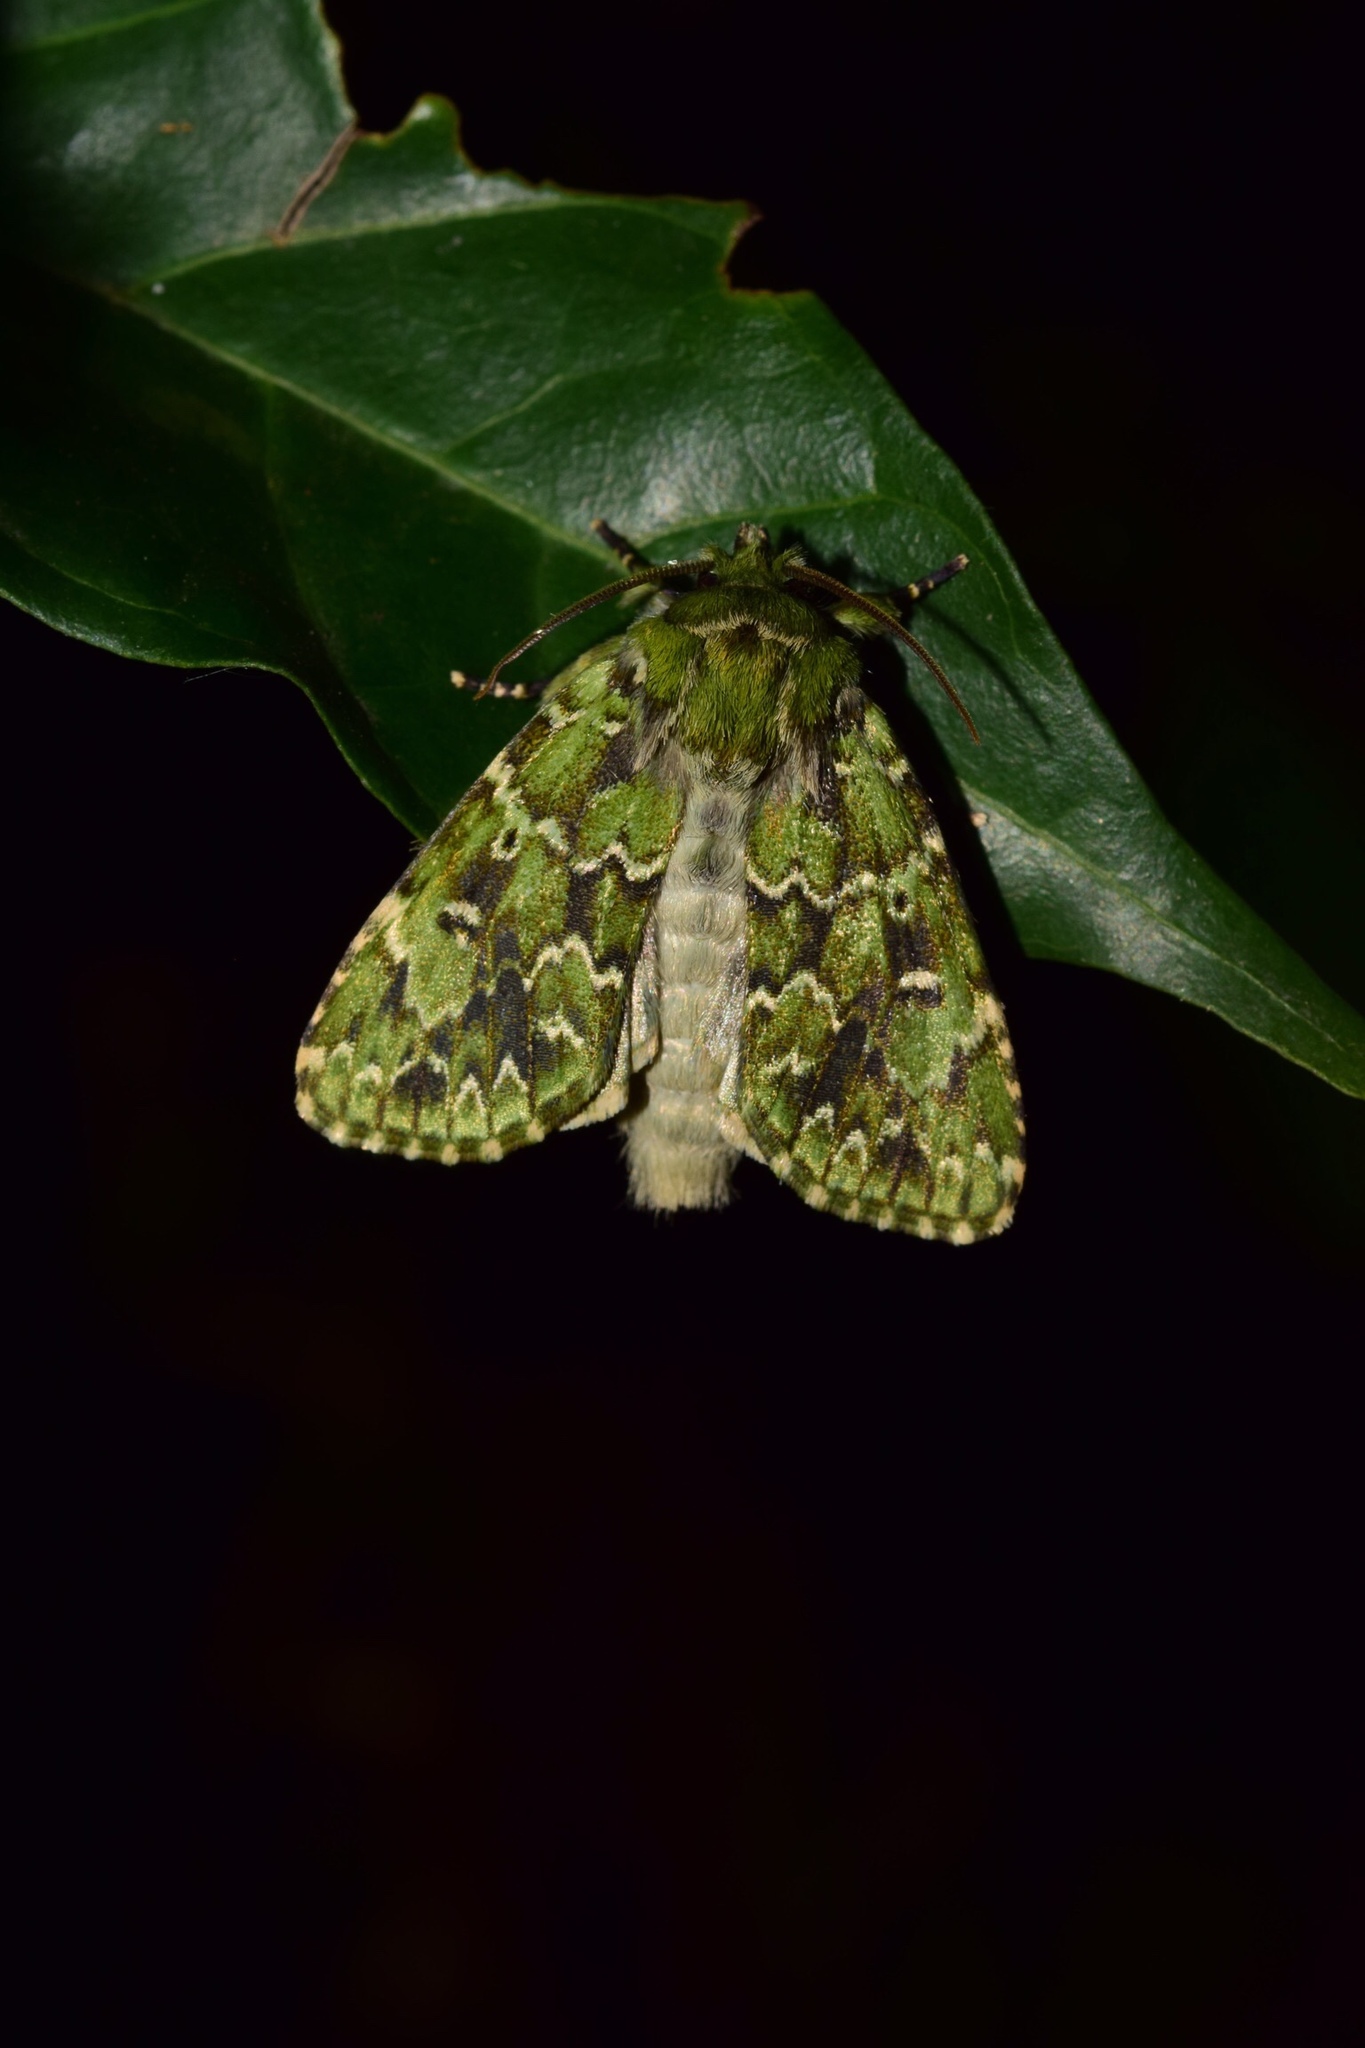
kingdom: Animalia
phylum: Arthropoda
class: Insecta
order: Lepidoptera
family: Noctuidae
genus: Nyodes
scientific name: Nyodes acatharta
